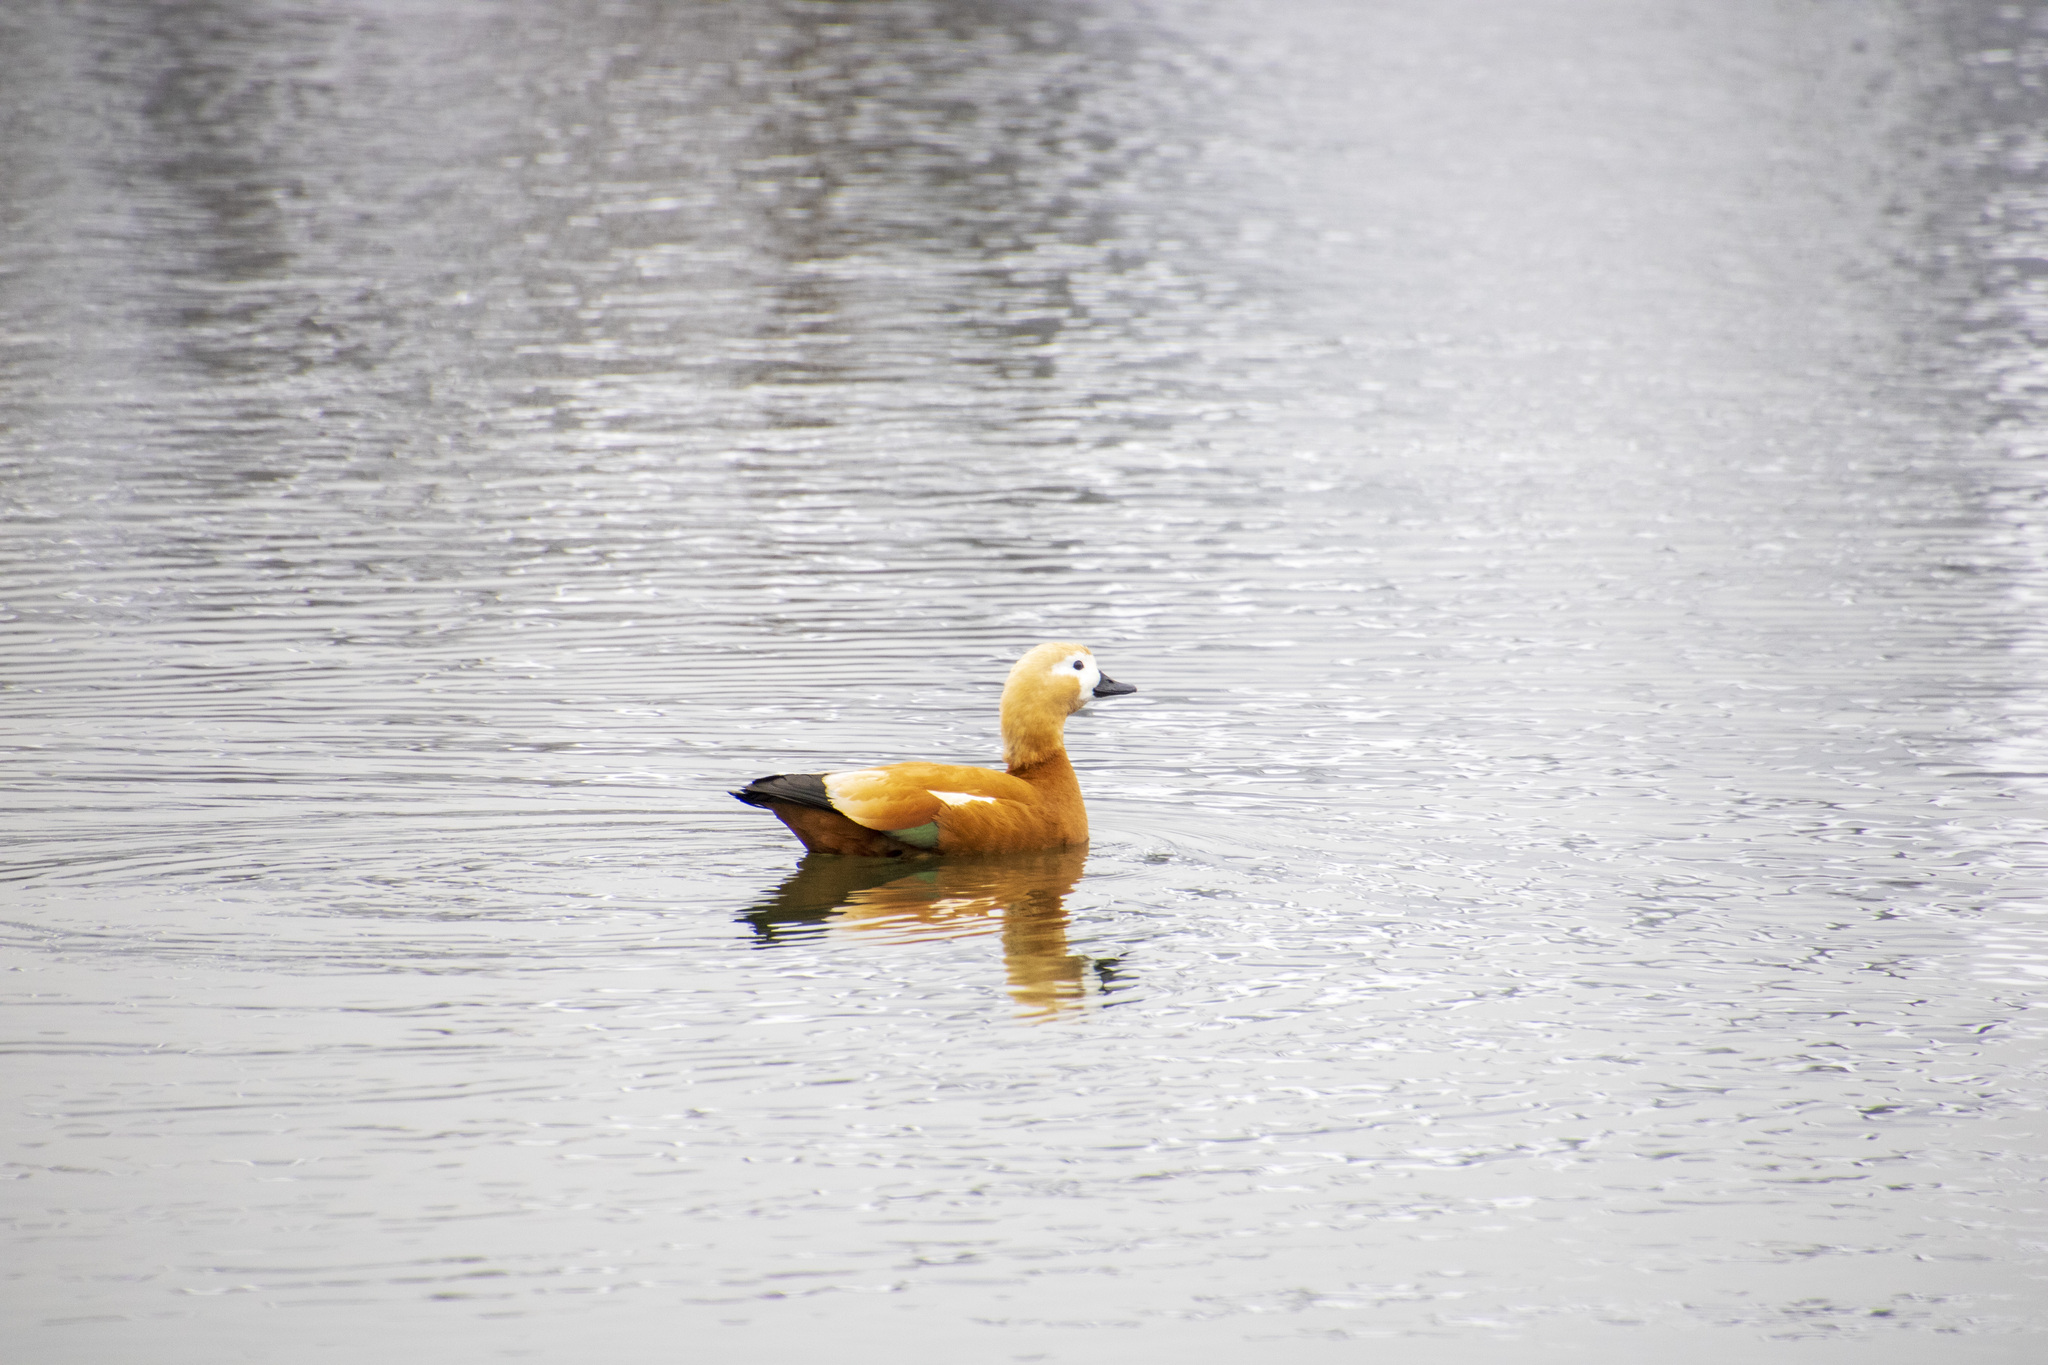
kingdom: Animalia
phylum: Chordata
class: Aves
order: Anseriformes
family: Anatidae
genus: Tadorna
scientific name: Tadorna ferruginea
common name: Ruddy shelduck
